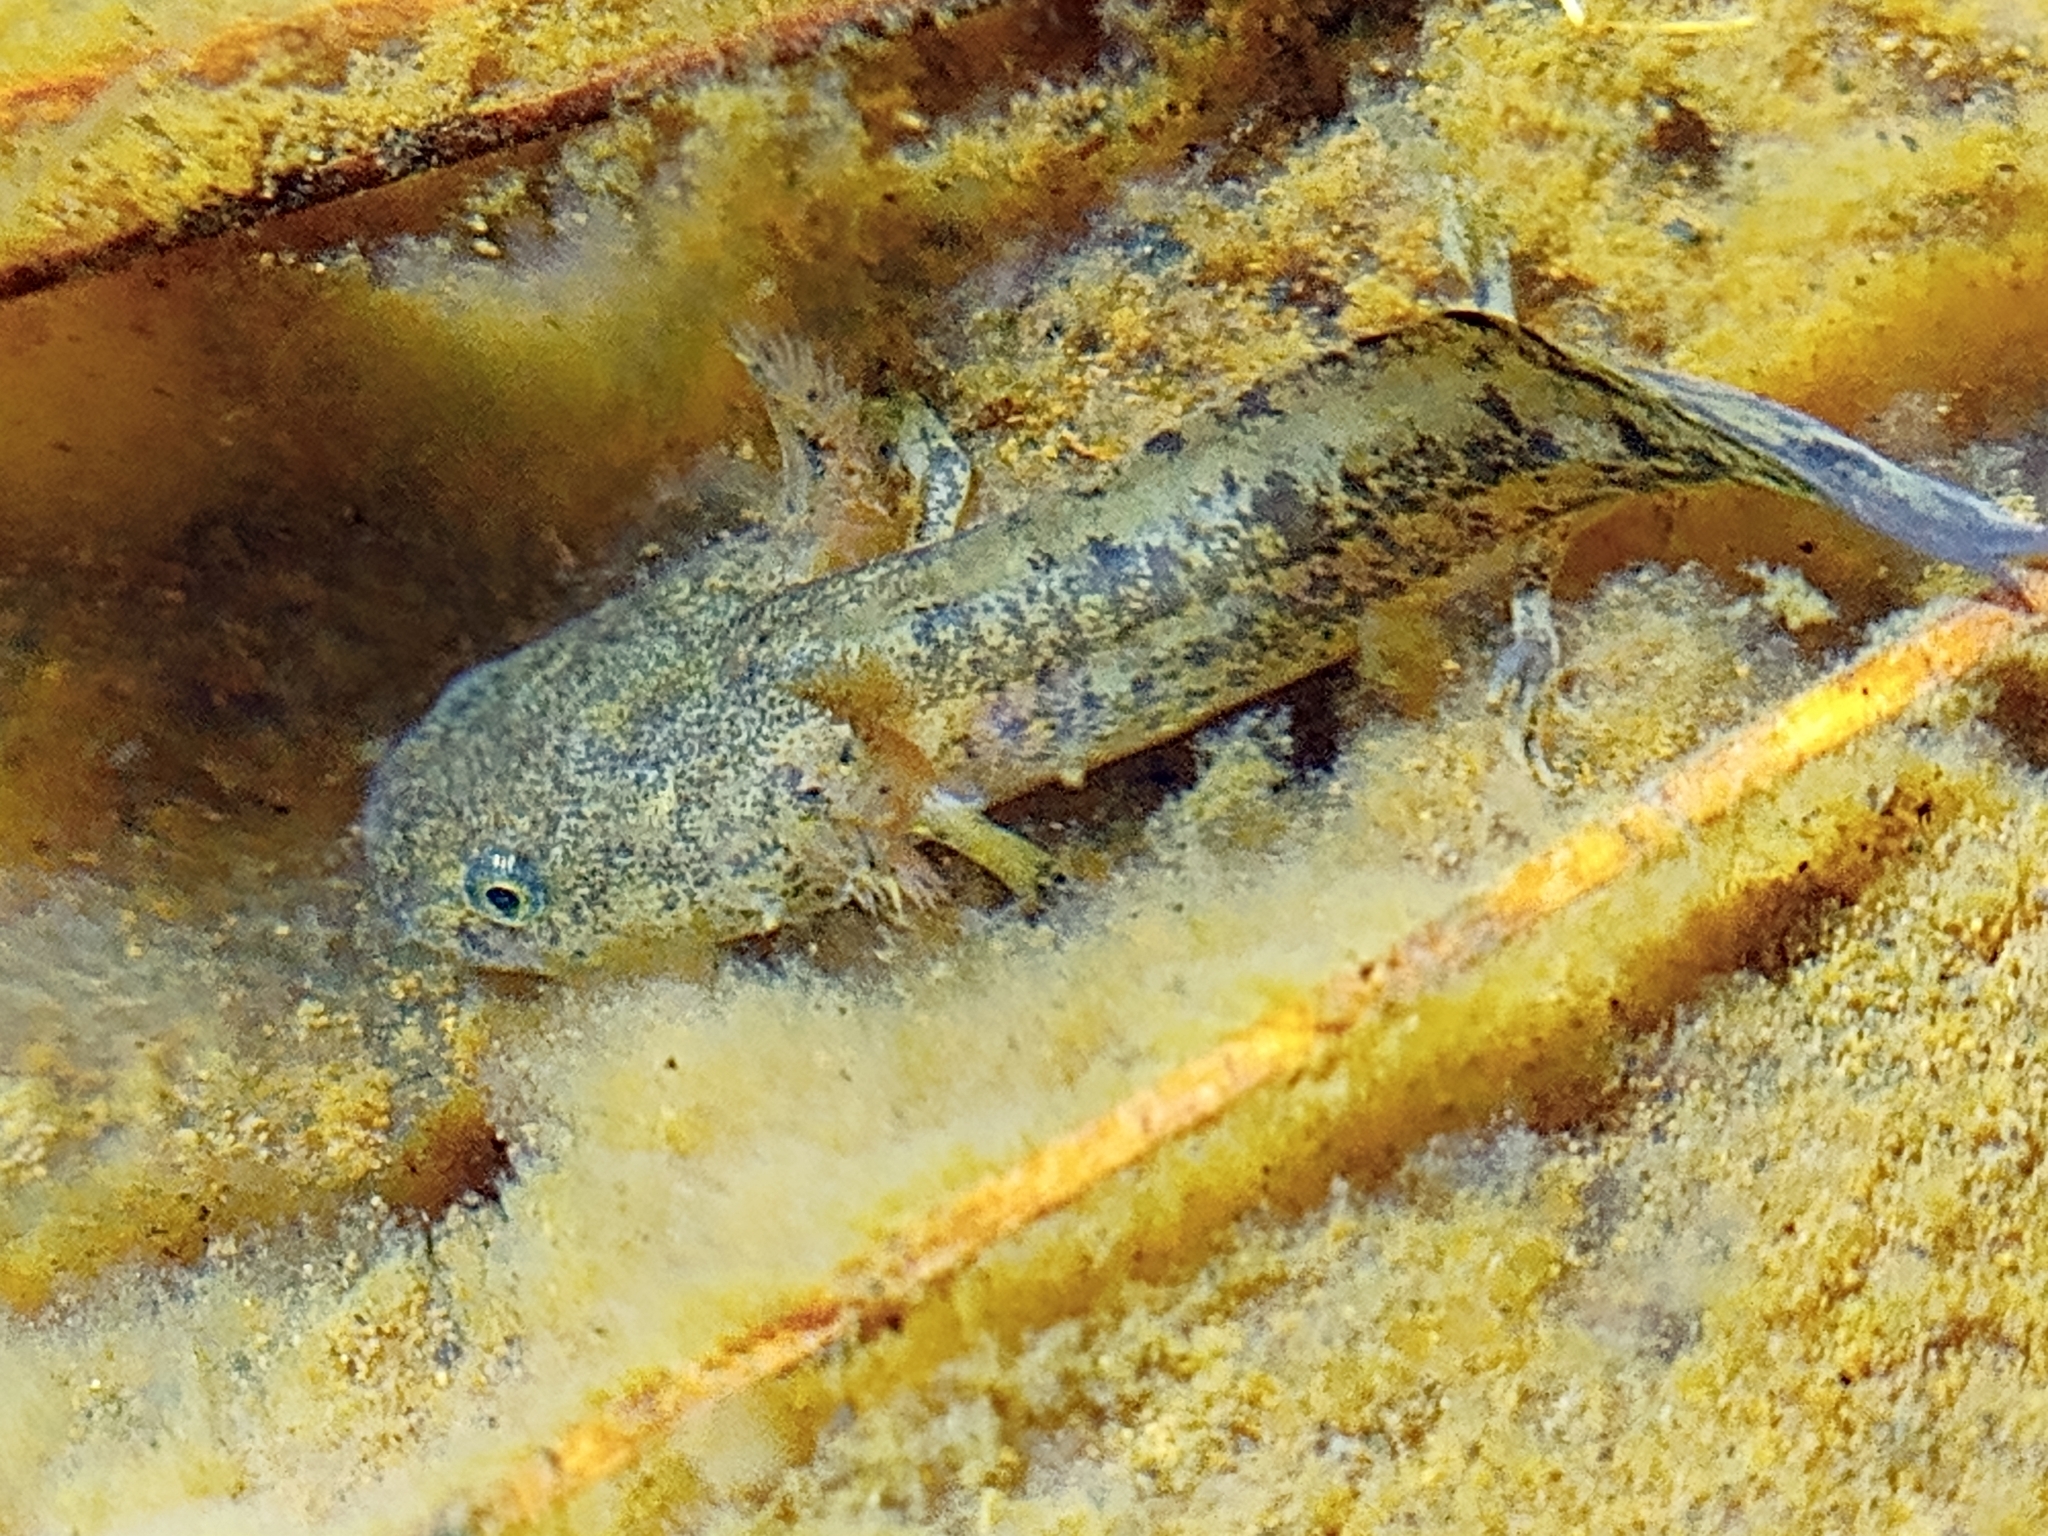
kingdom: Animalia
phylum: Chordata
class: Amphibia
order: Caudata
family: Ambystomatidae
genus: Ambystoma
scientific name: Ambystoma flavipiperatum
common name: Yellow-peppered salamander
